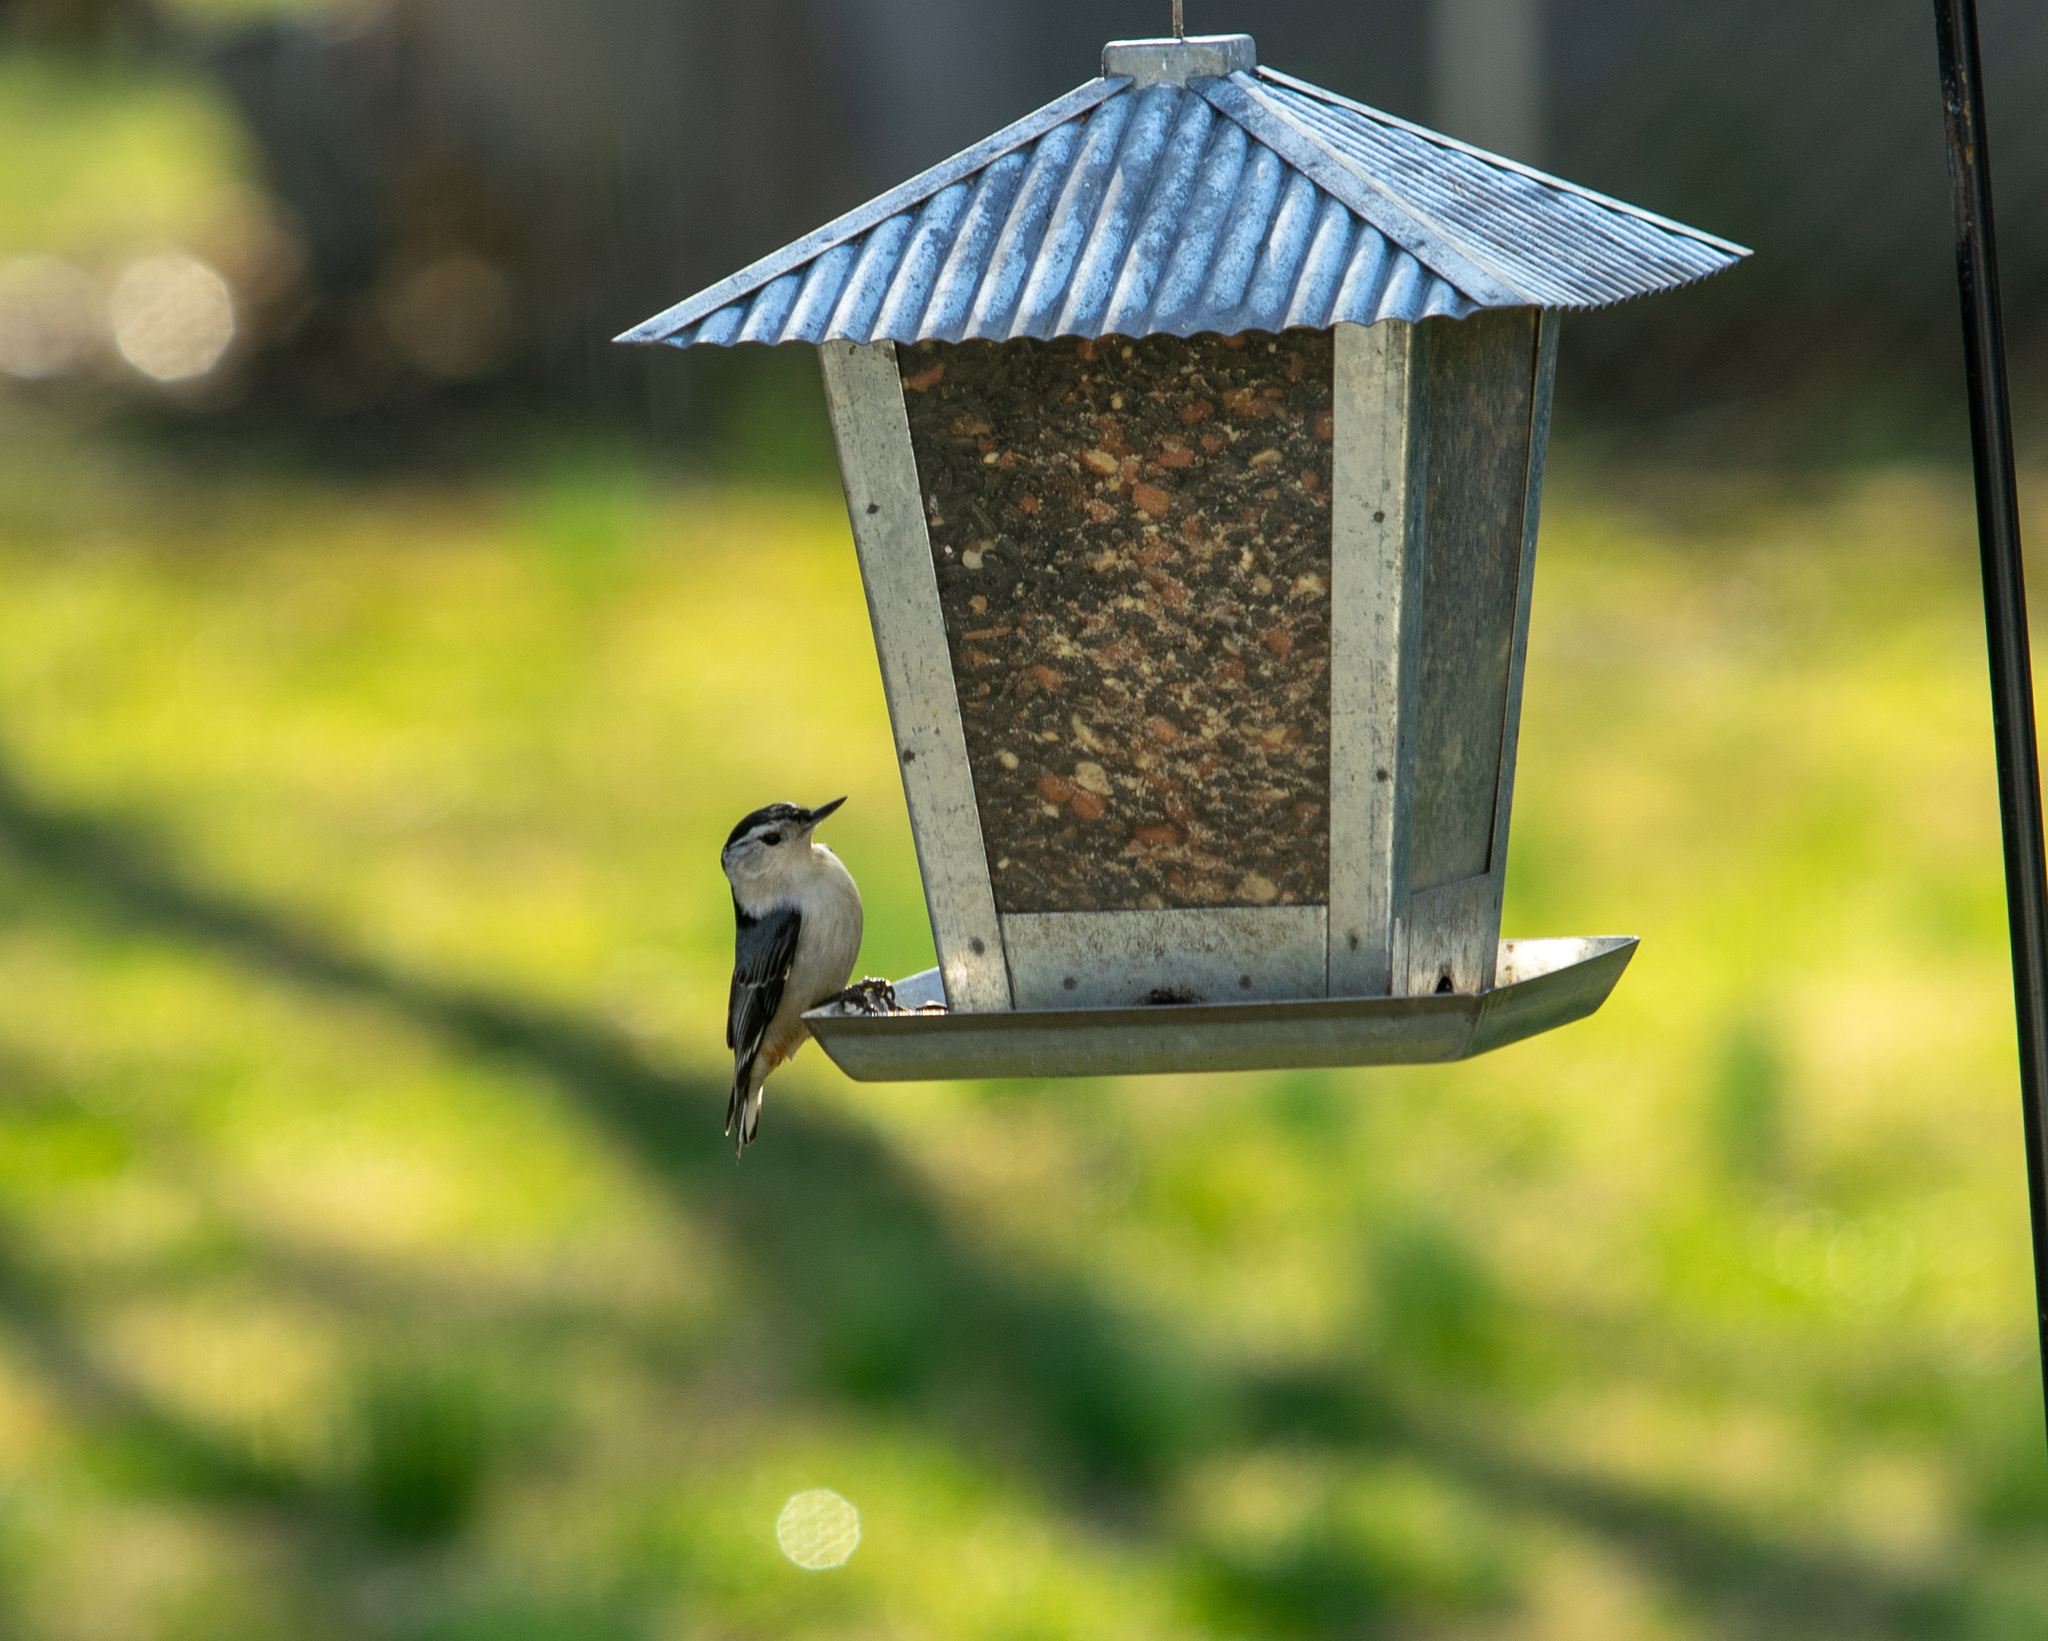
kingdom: Animalia
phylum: Chordata
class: Aves
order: Passeriformes
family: Sittidae
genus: Sitta
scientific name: Sitta carolinensis
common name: White-breasted nuthatch
